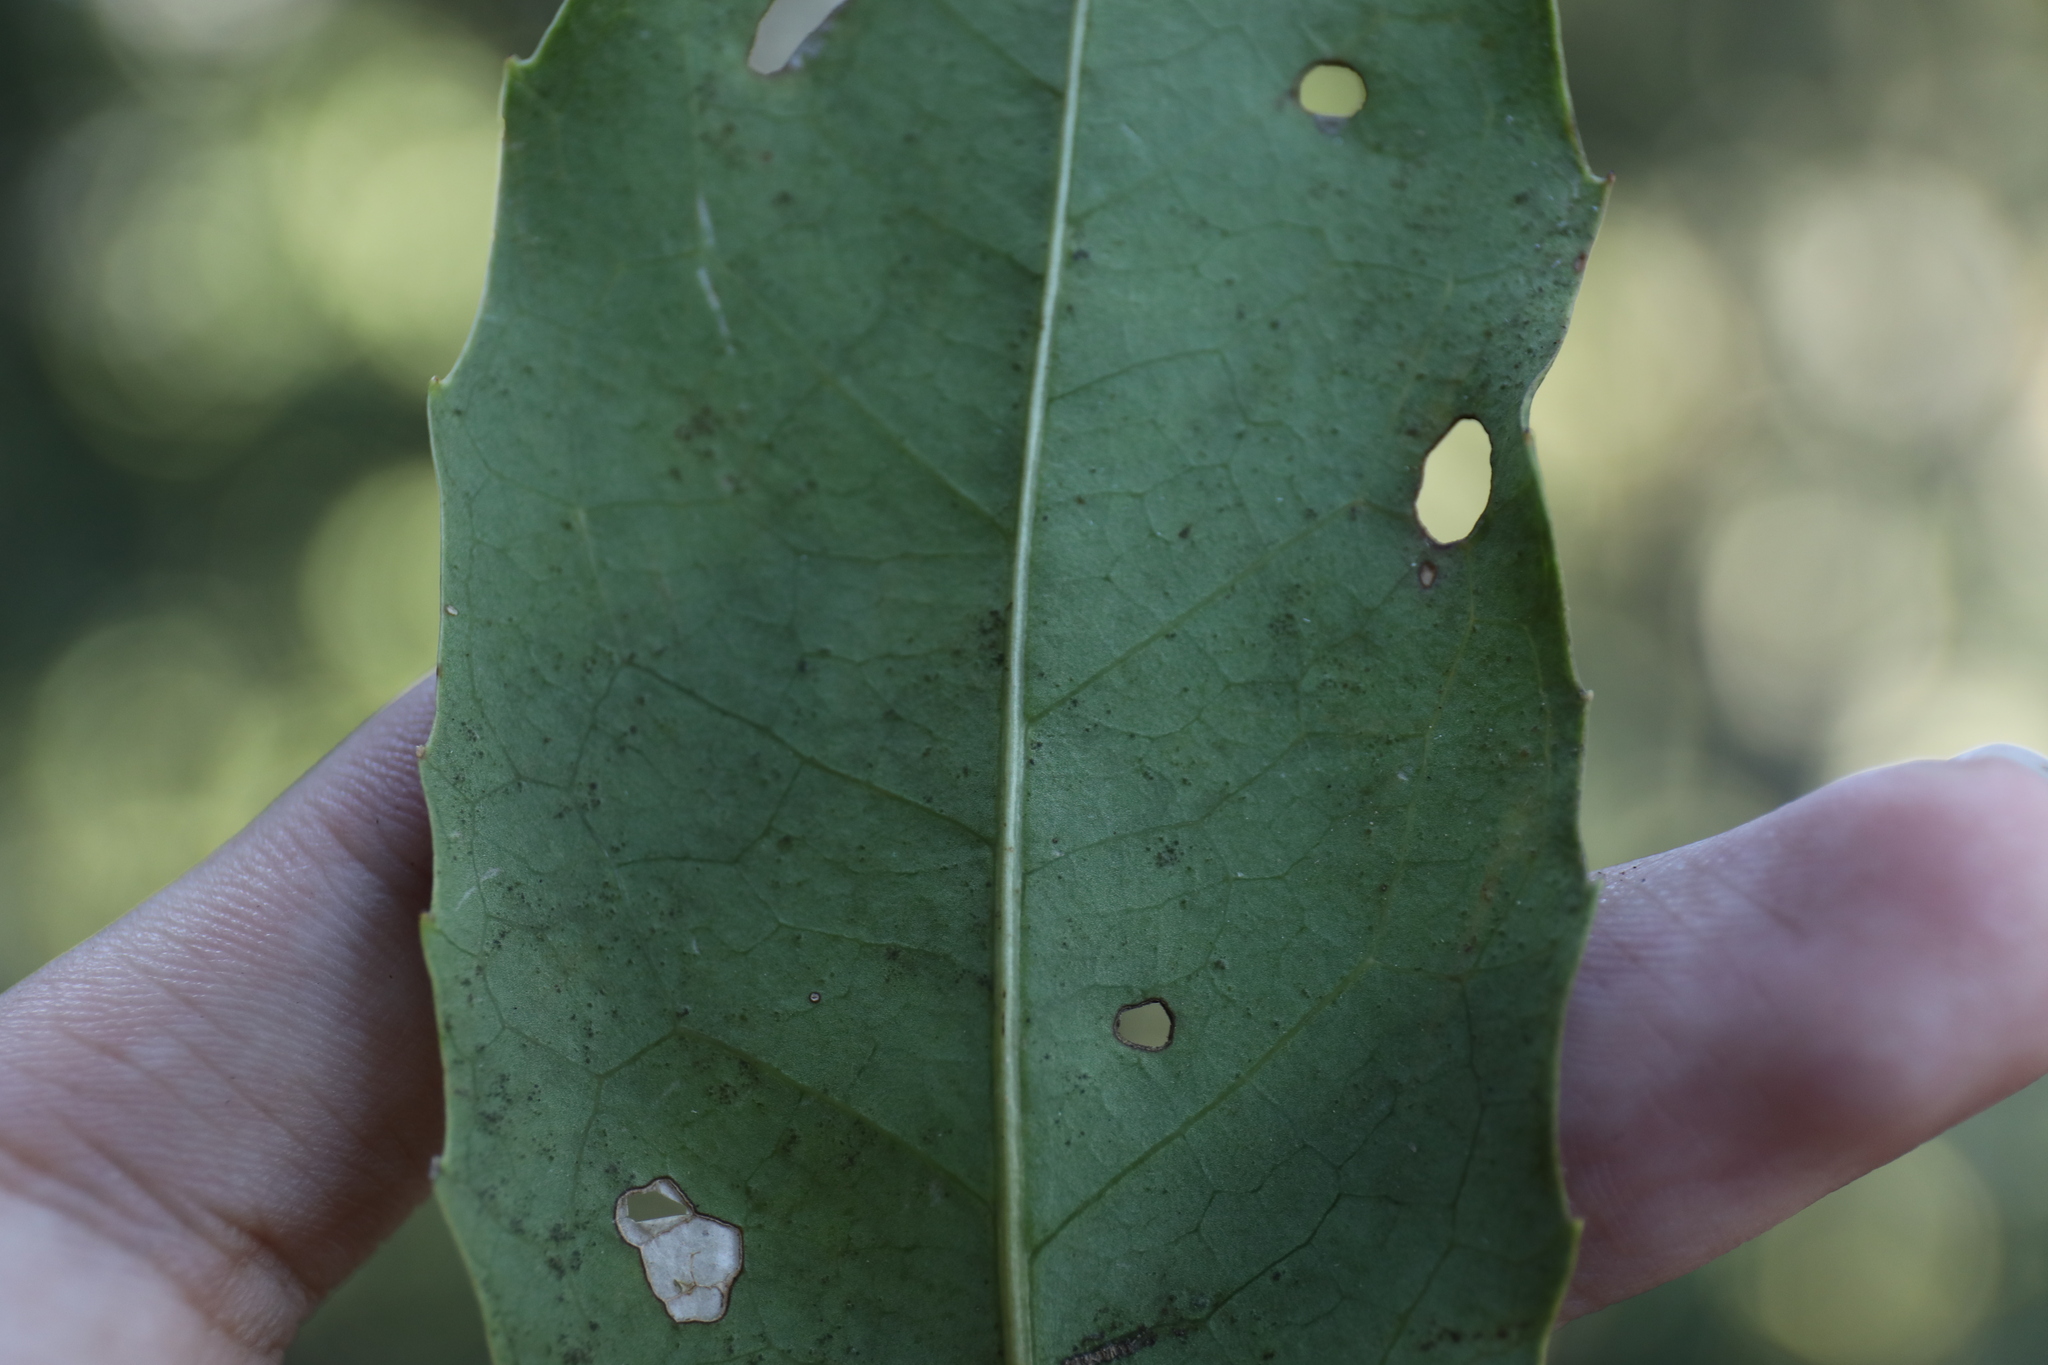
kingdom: Plantae
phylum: Tracheophyta
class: Magnoliopsida
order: Proteales
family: Proteaceae
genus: Helicia
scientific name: Helicia rengetiensis
